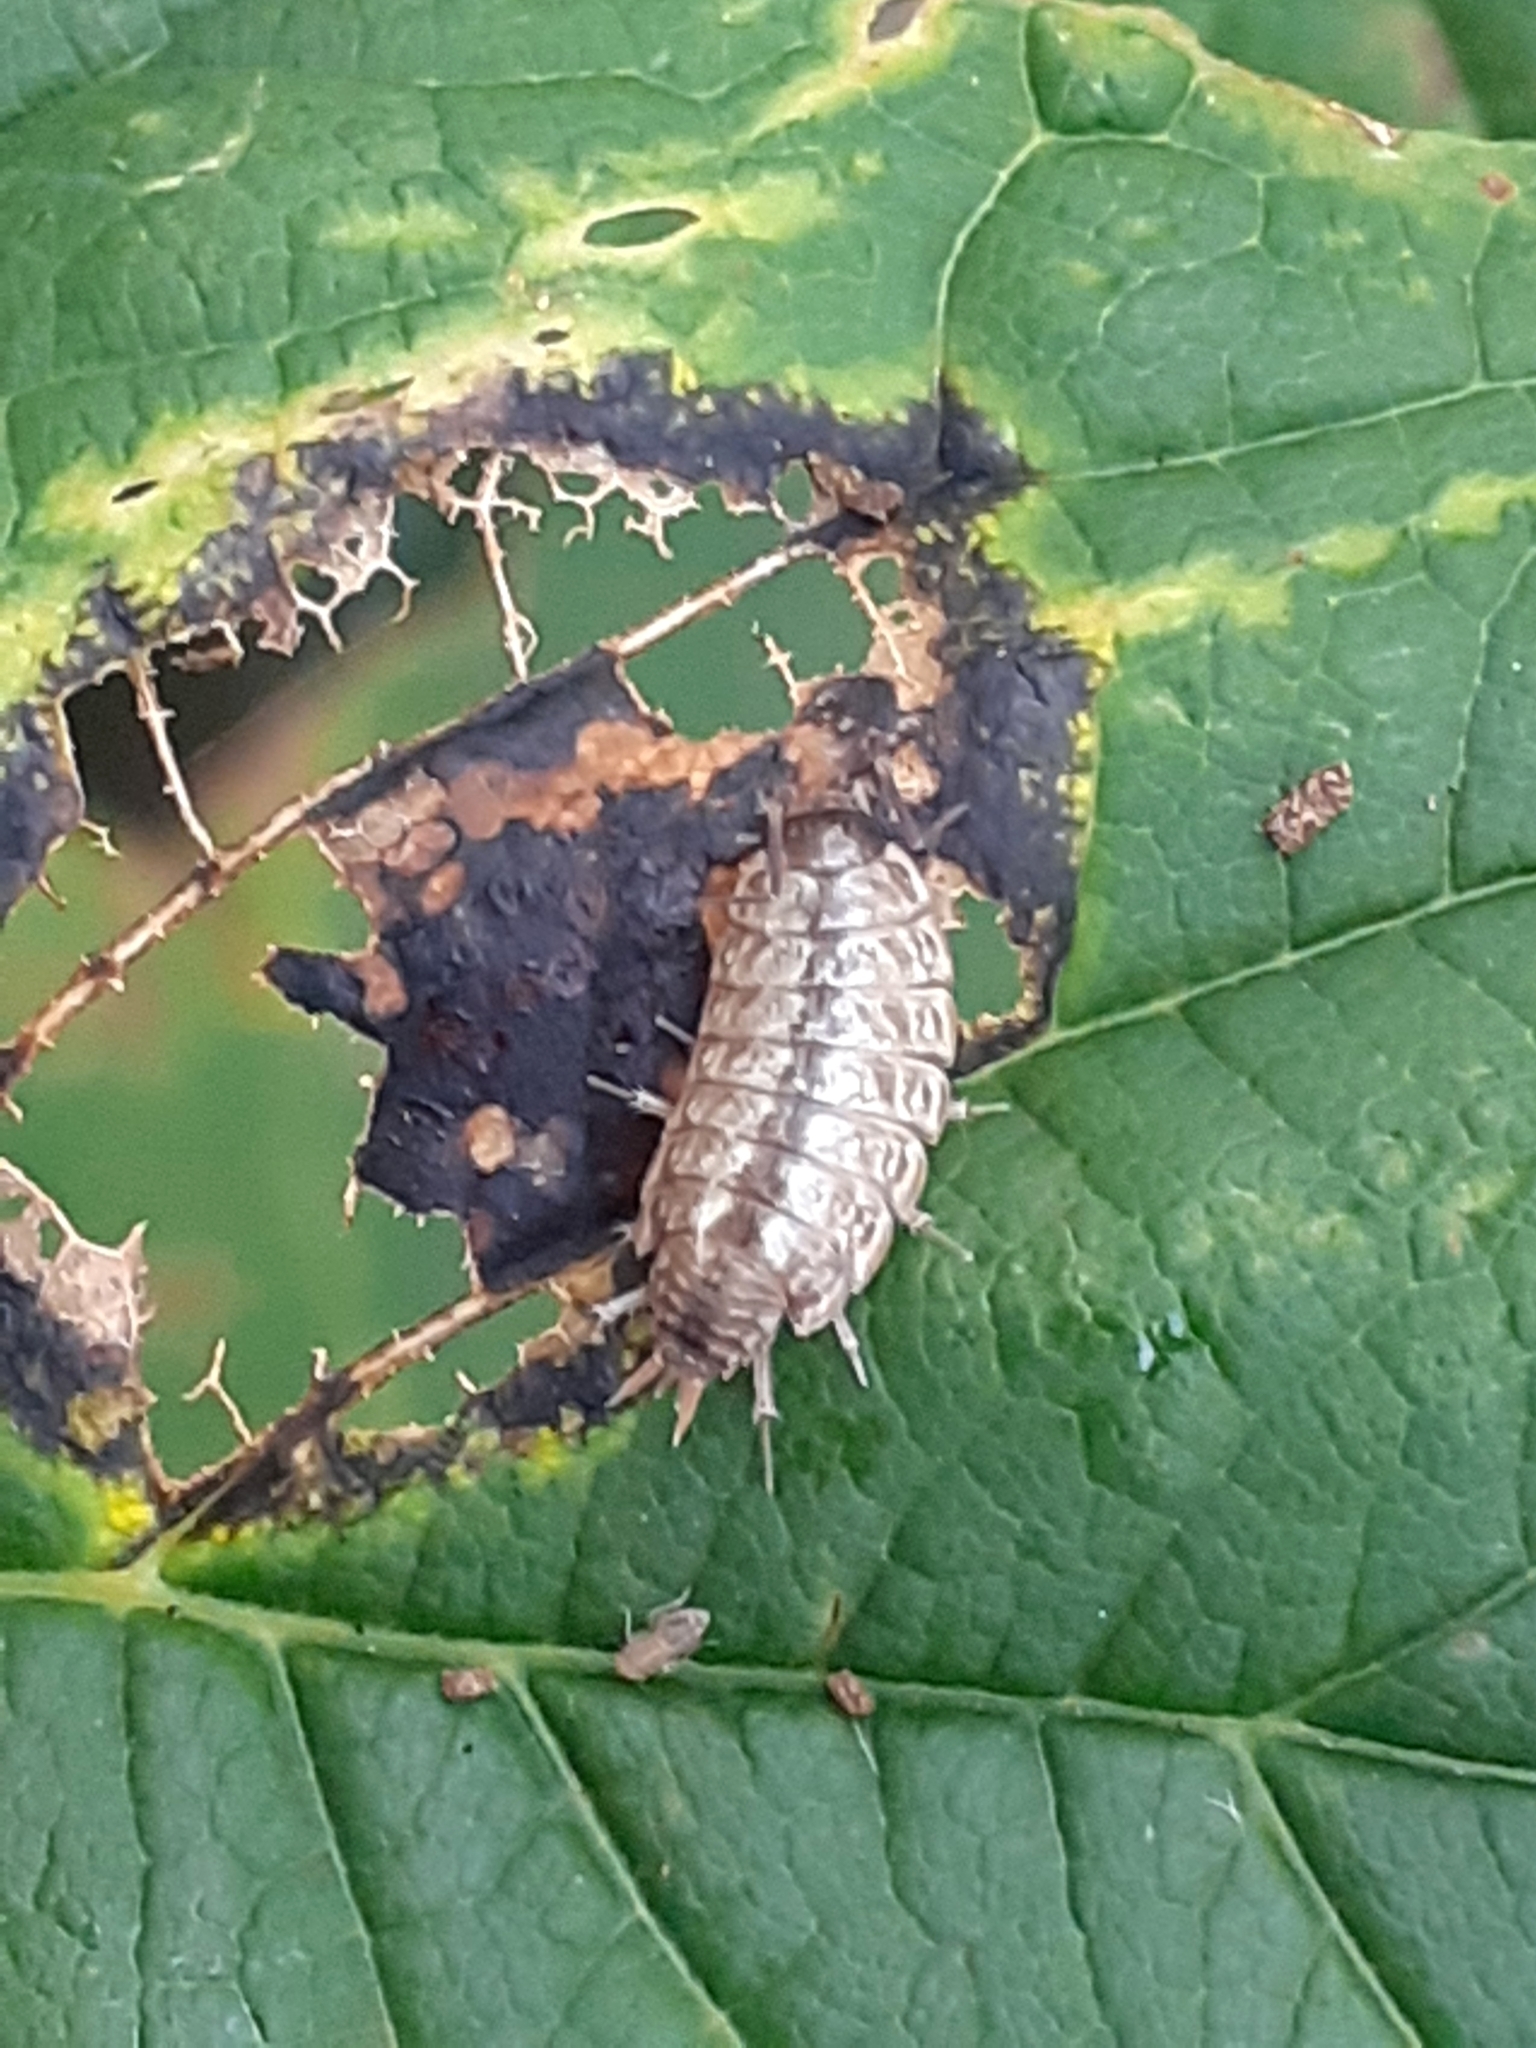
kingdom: Animalia
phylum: Arthropoda
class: Malacostraca
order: Isopoda
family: Philosciidae
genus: Philoscia
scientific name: Philoscia muscorum
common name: Common striped woodlouse
